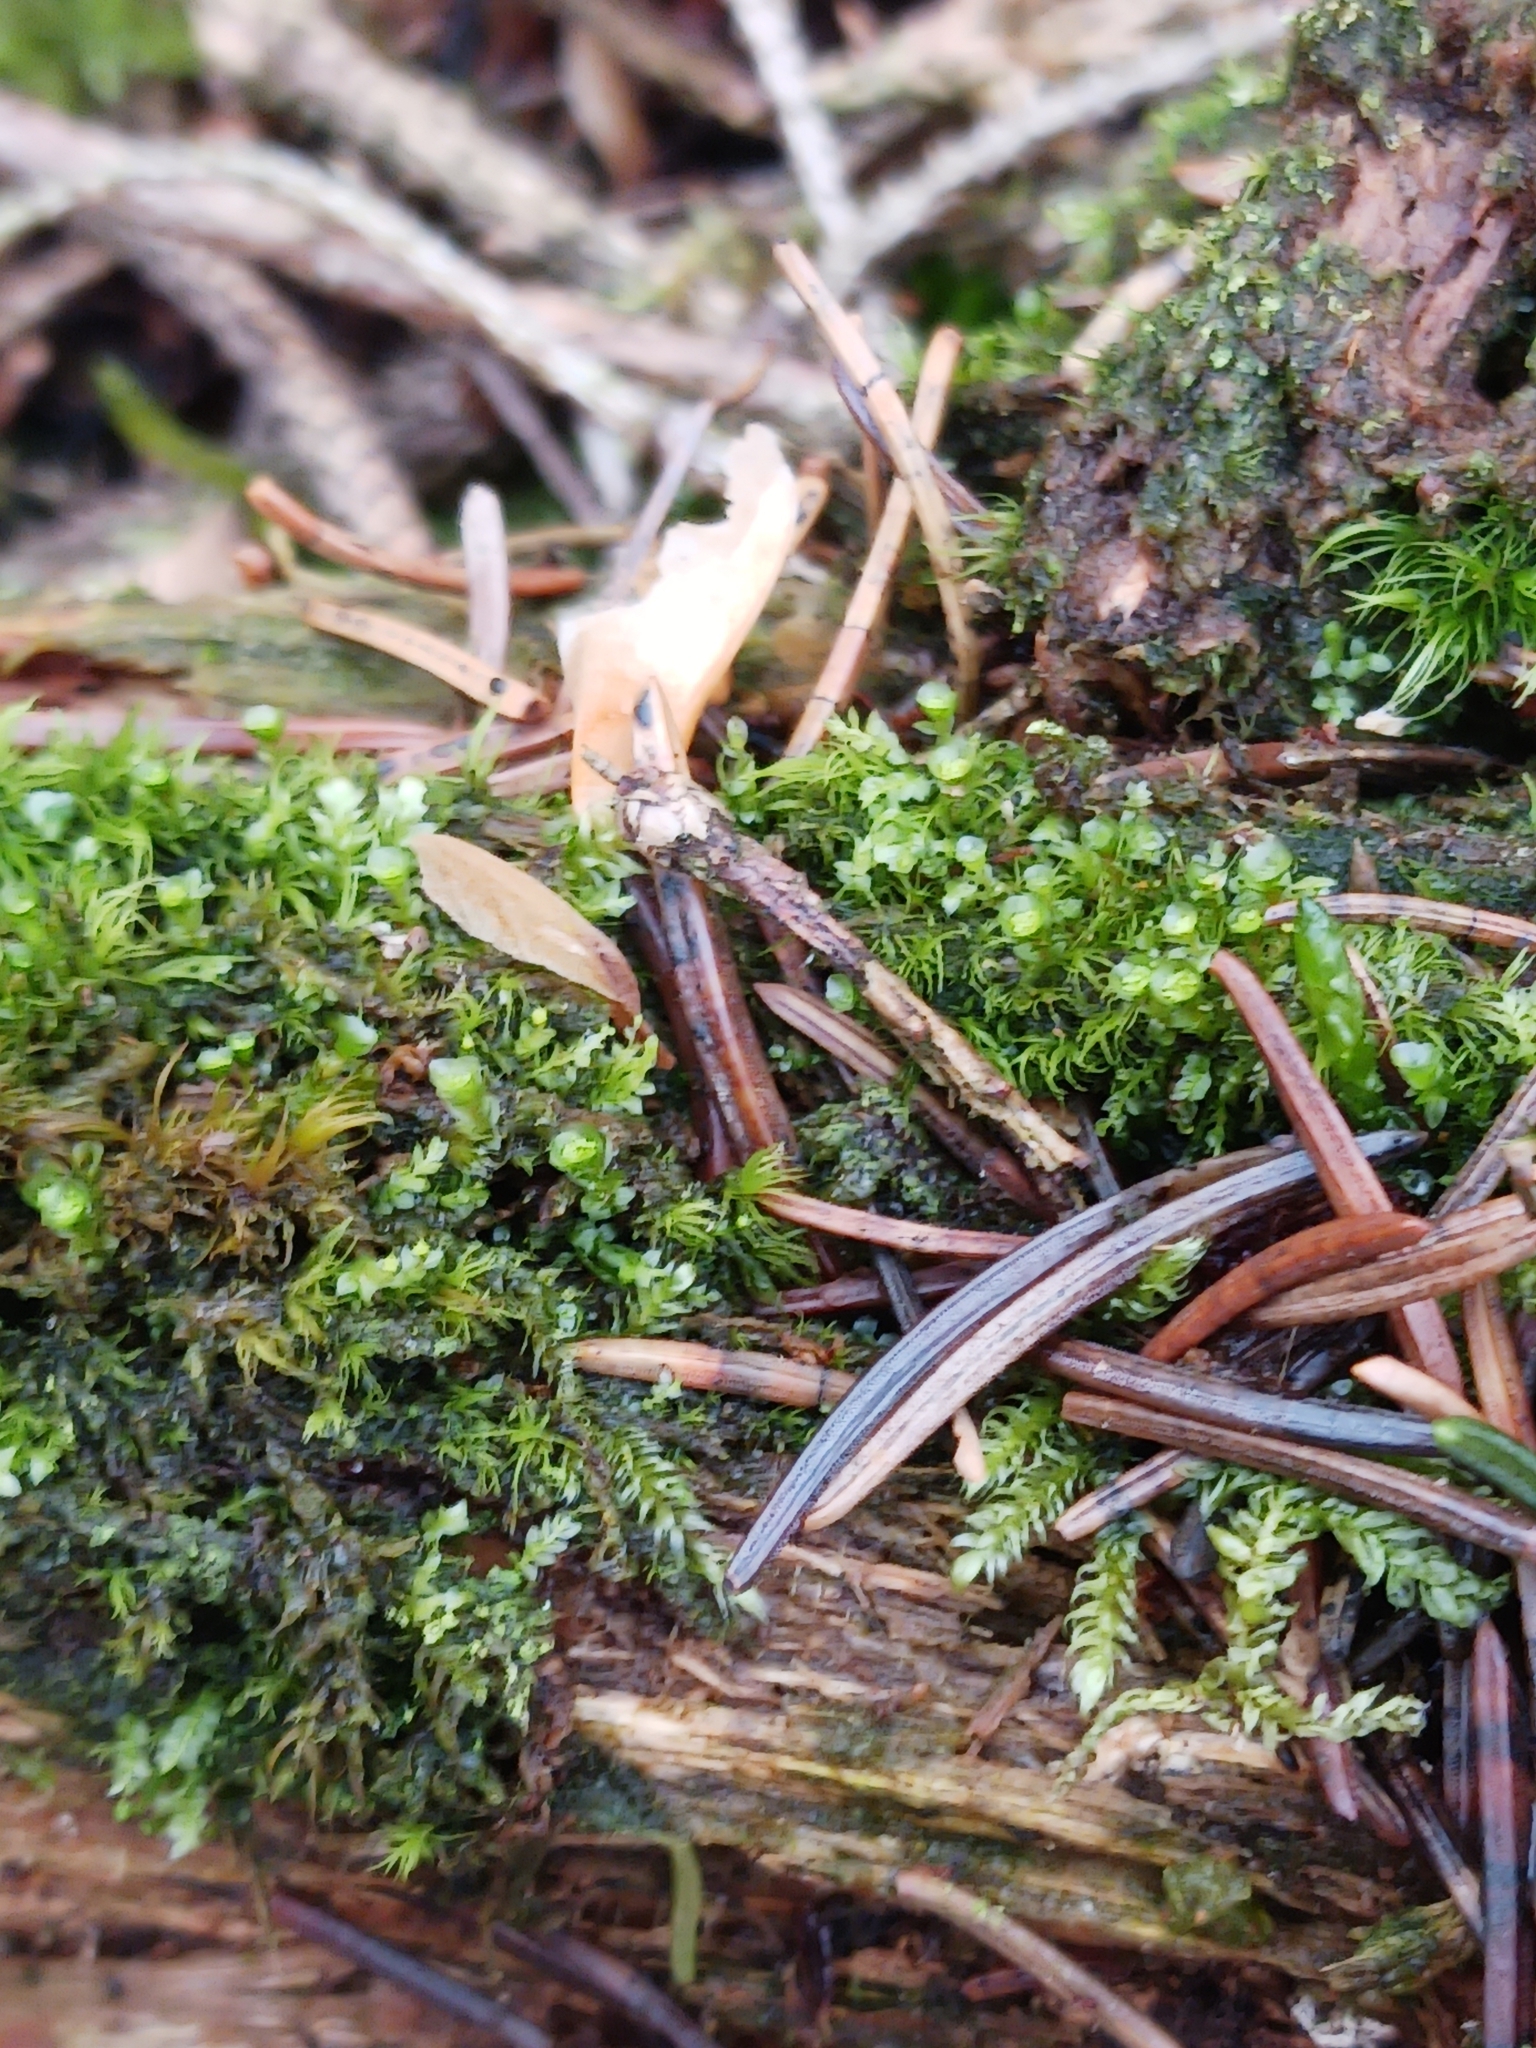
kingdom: Plantae
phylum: Bryophyta
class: Polytrichopsida
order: Tetraphidales
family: Tetraphidaceae
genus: Tetraphis
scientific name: Tetraphis pellucida
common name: Common four-toothed moss
